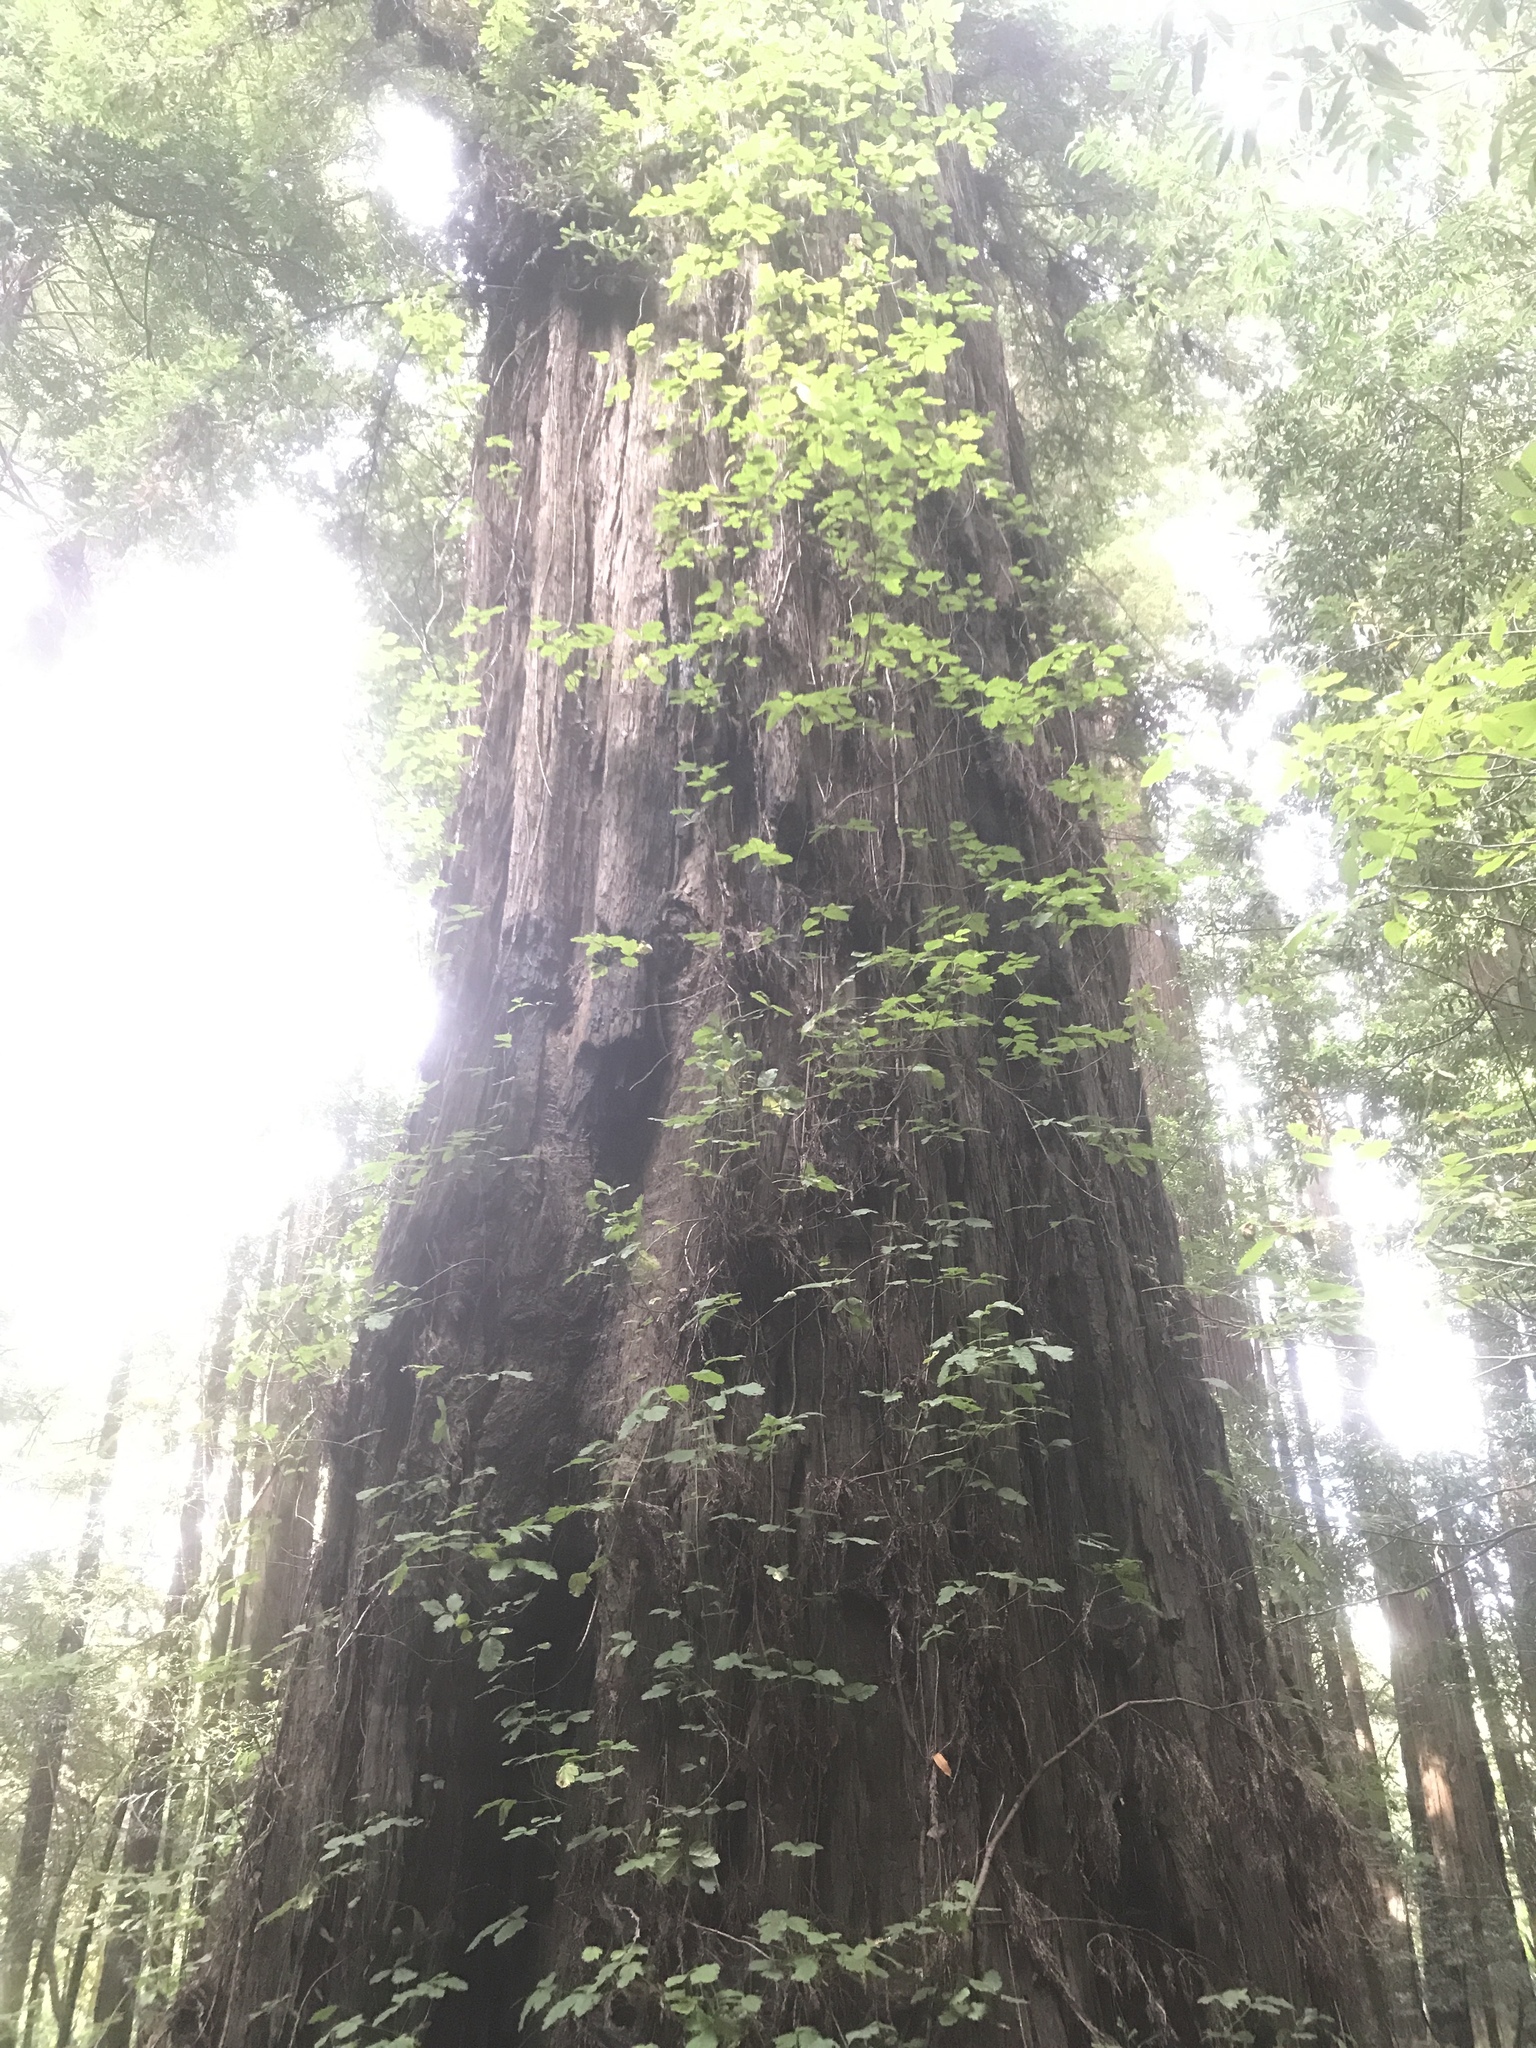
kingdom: Plantae
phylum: Tracheophyta
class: Magnoliopsida
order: Sapindales
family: Anacardiaceae
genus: Toxicodendron
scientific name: Toxicodendron diversilobum
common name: Pacific poison-oak
